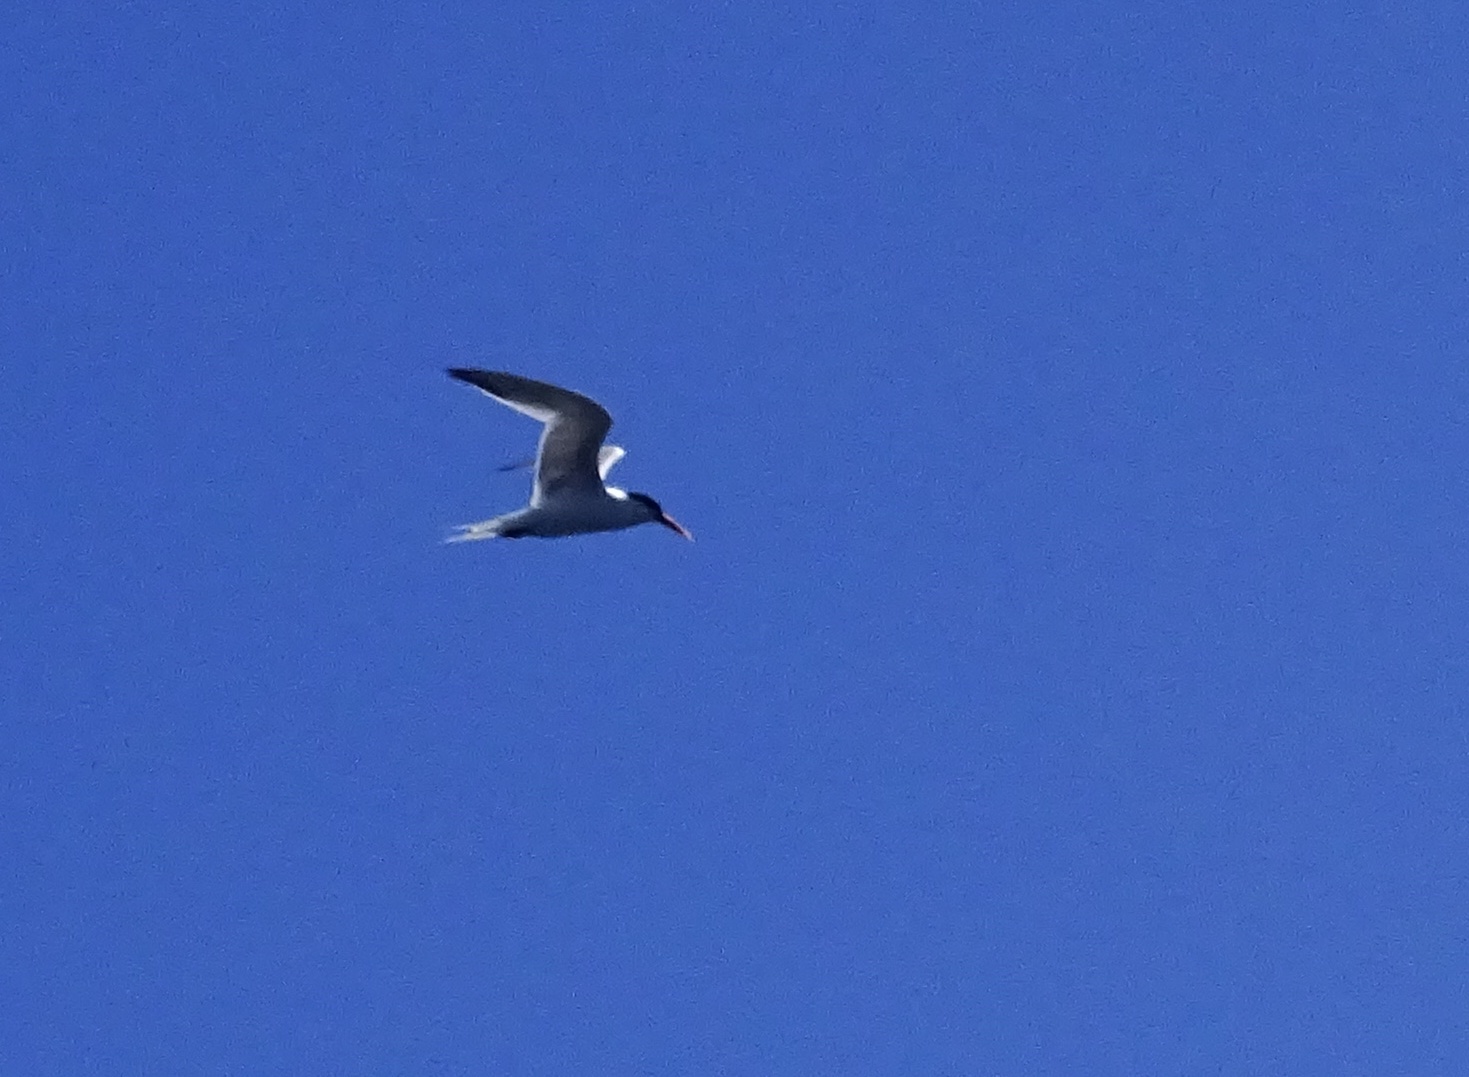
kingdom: Animalia
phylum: Chordata
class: Aves
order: Charadriiformes
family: Laridae
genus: Thalasseus
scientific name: Thalasseus elegans
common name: Elegant tern
